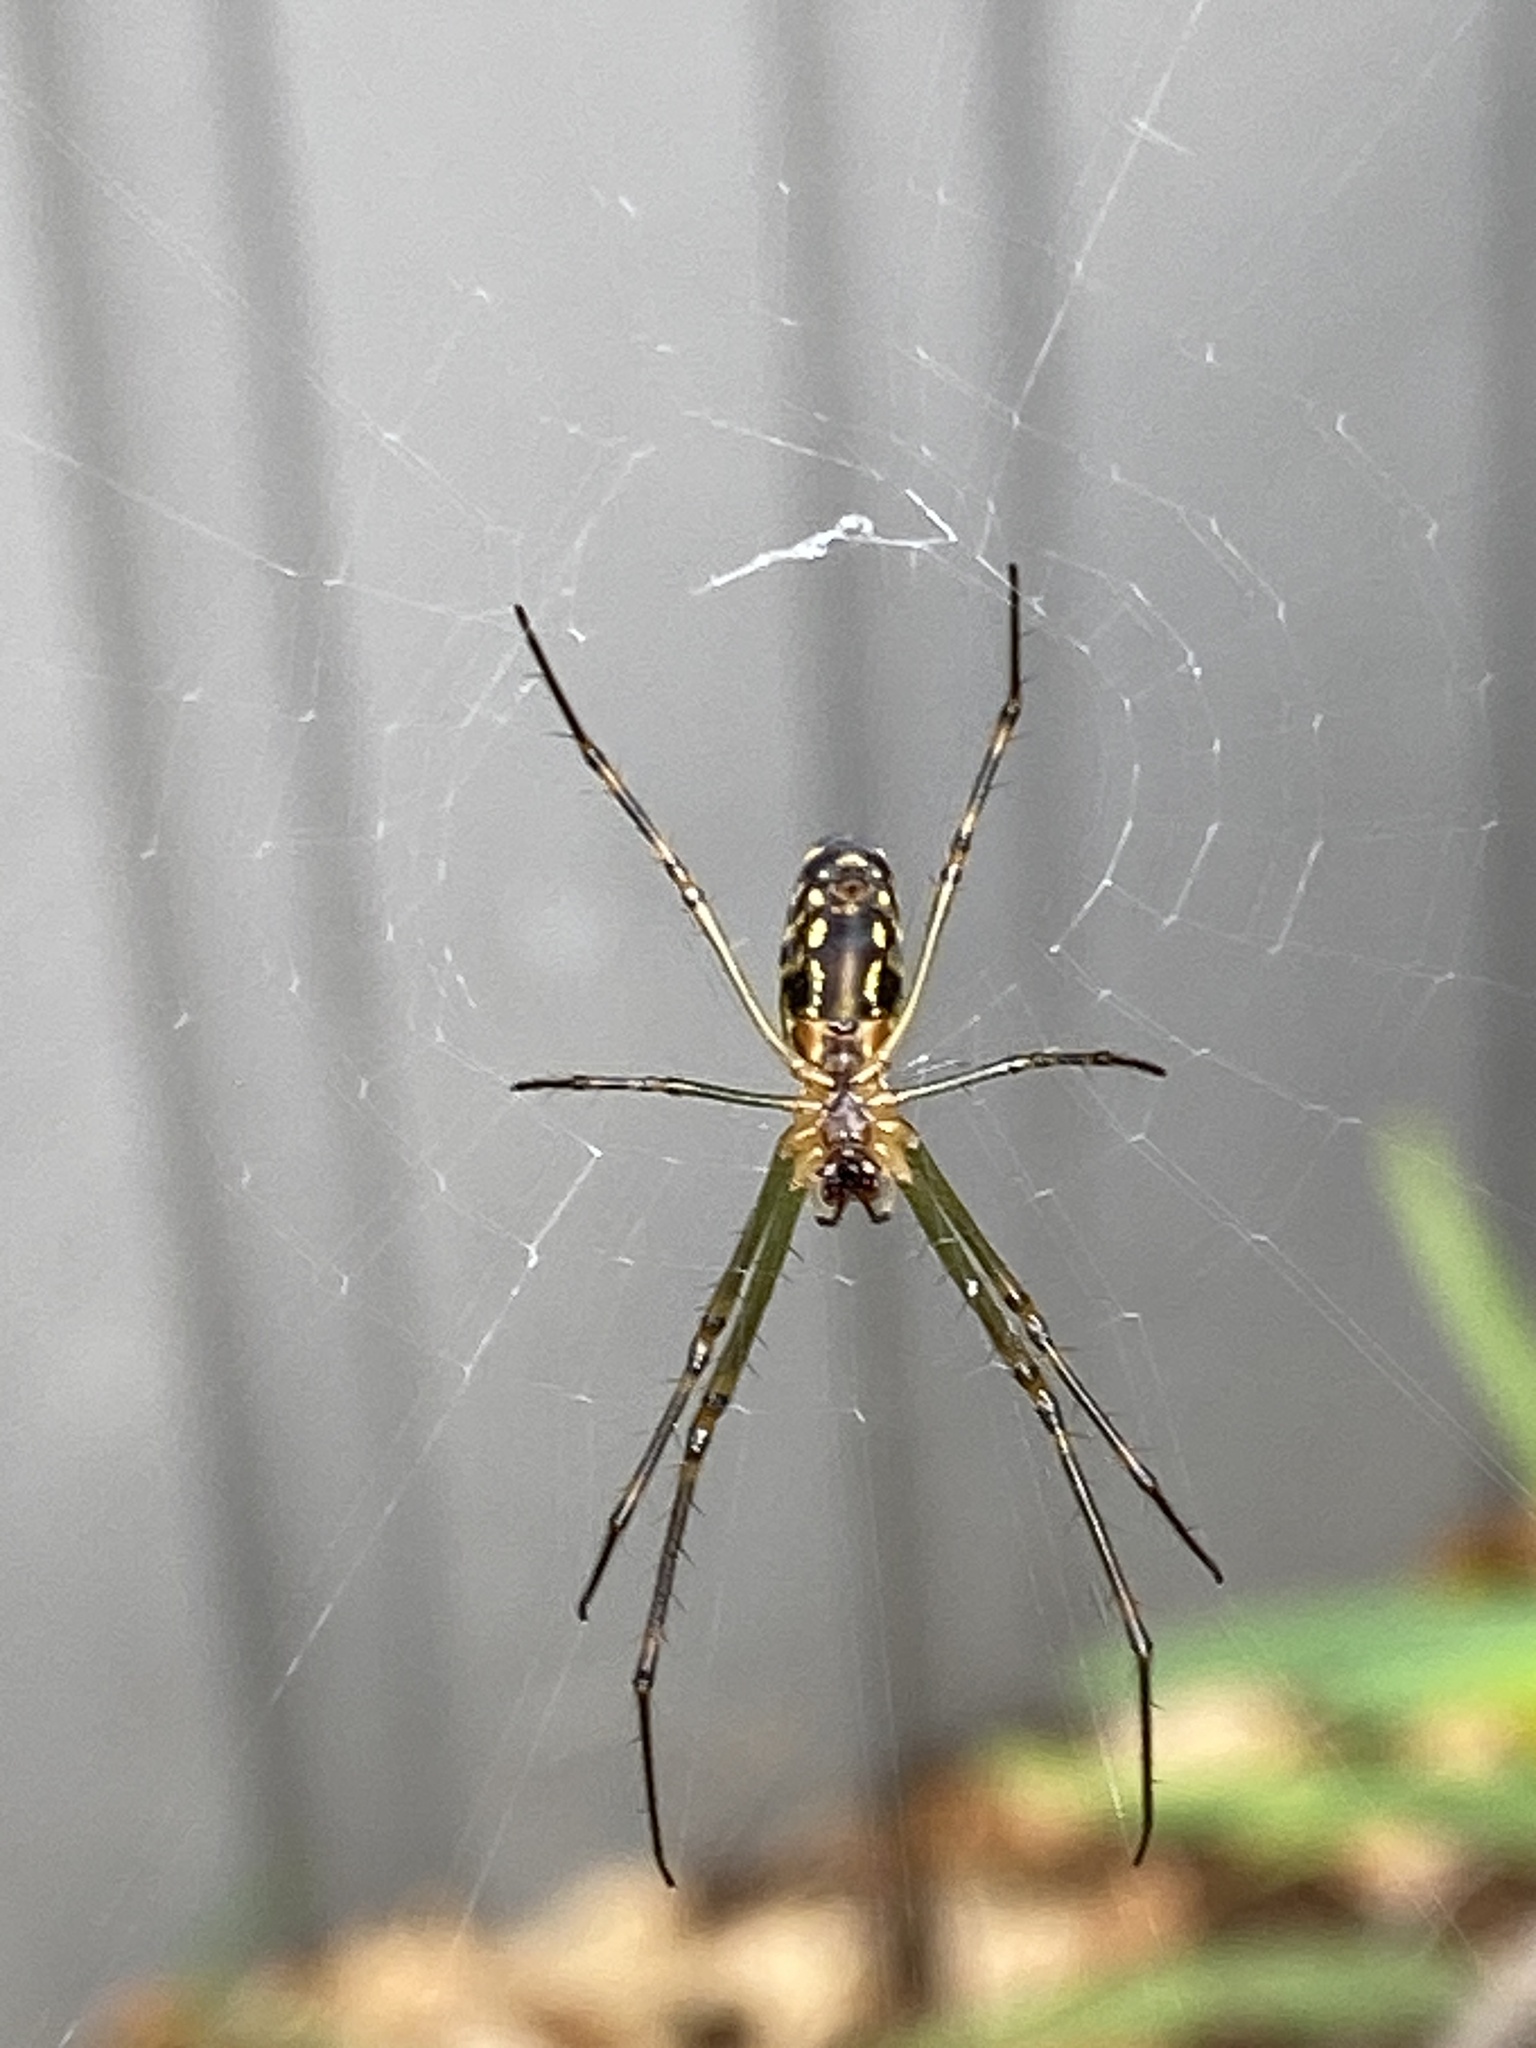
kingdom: Animalia
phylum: Arthropoda
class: Arachnida
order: Araneae
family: Tetragnathidae
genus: Leucauge
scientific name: Leucauge dromedaria
